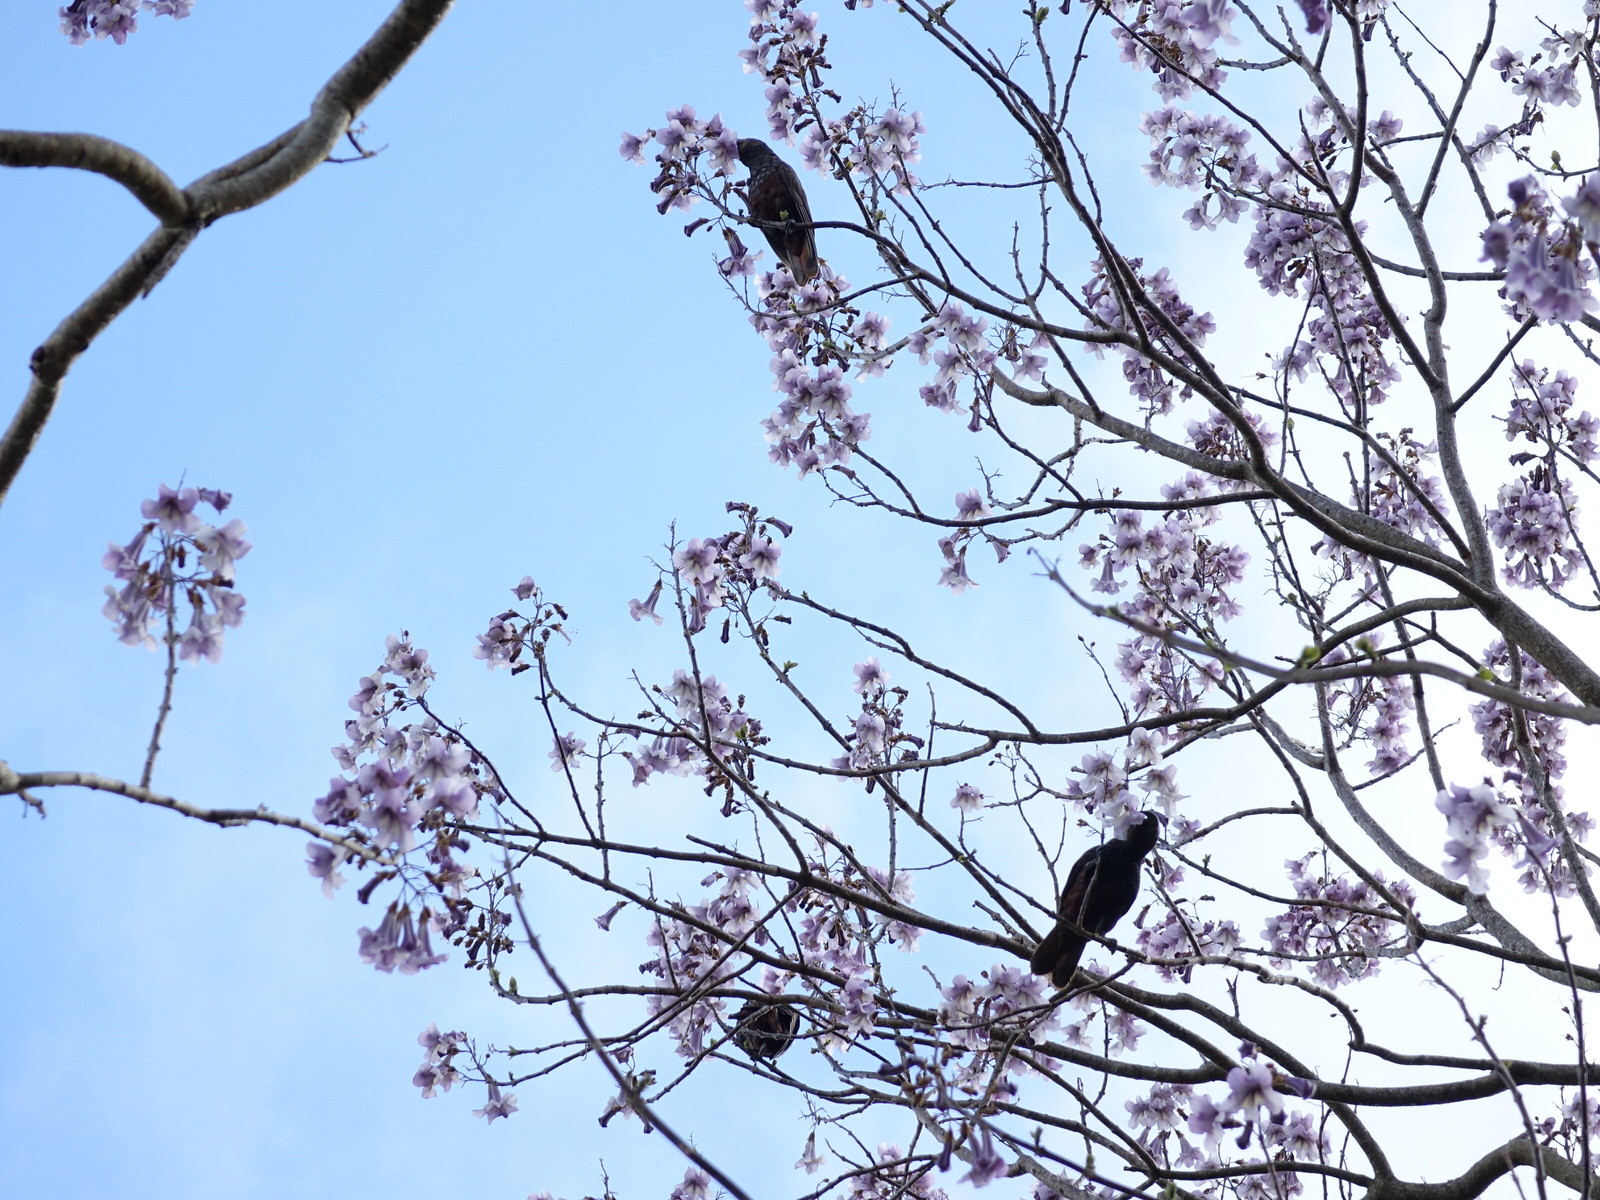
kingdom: Animalia
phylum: Chordata
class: Aves
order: Psittaciformes
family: Psittacidae
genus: Nestor
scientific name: Nestor meridionalis
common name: New zealand kaka
